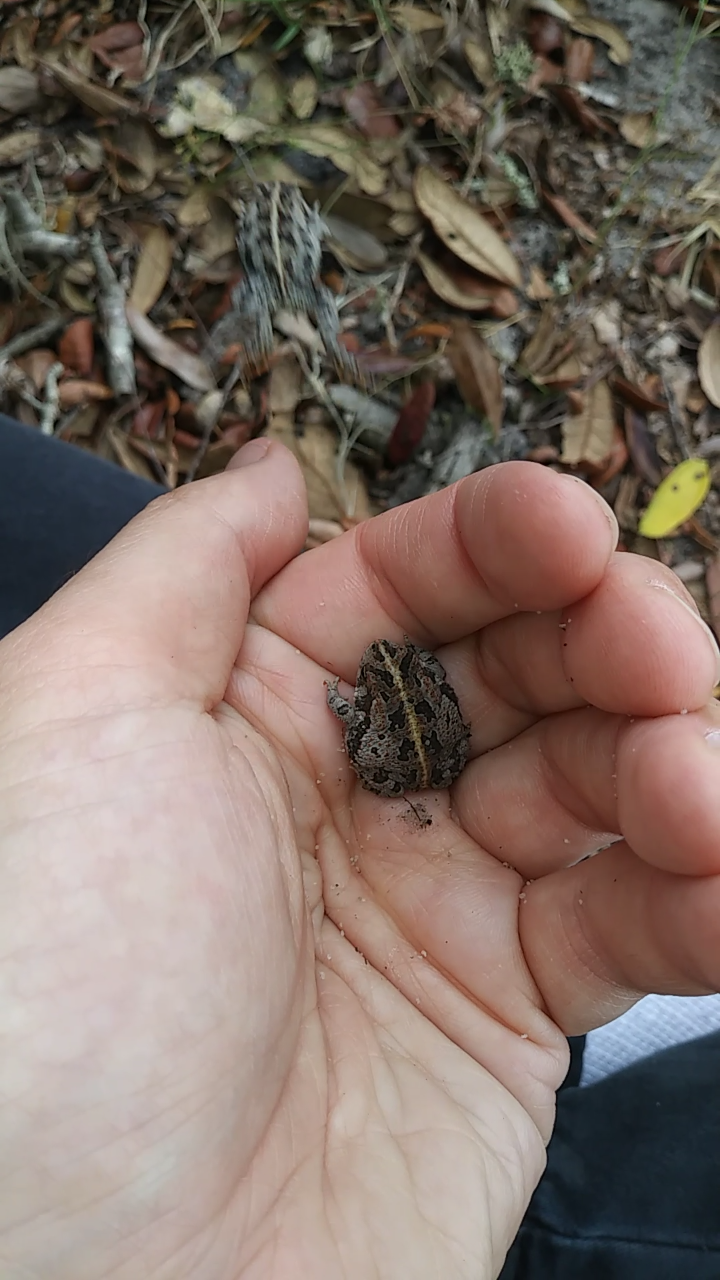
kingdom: Animalia
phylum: Chordata
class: Amphibia
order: Anura
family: Bufonidae
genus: Anaxyrus
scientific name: Anaxyrus quercicus
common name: Oak toad
